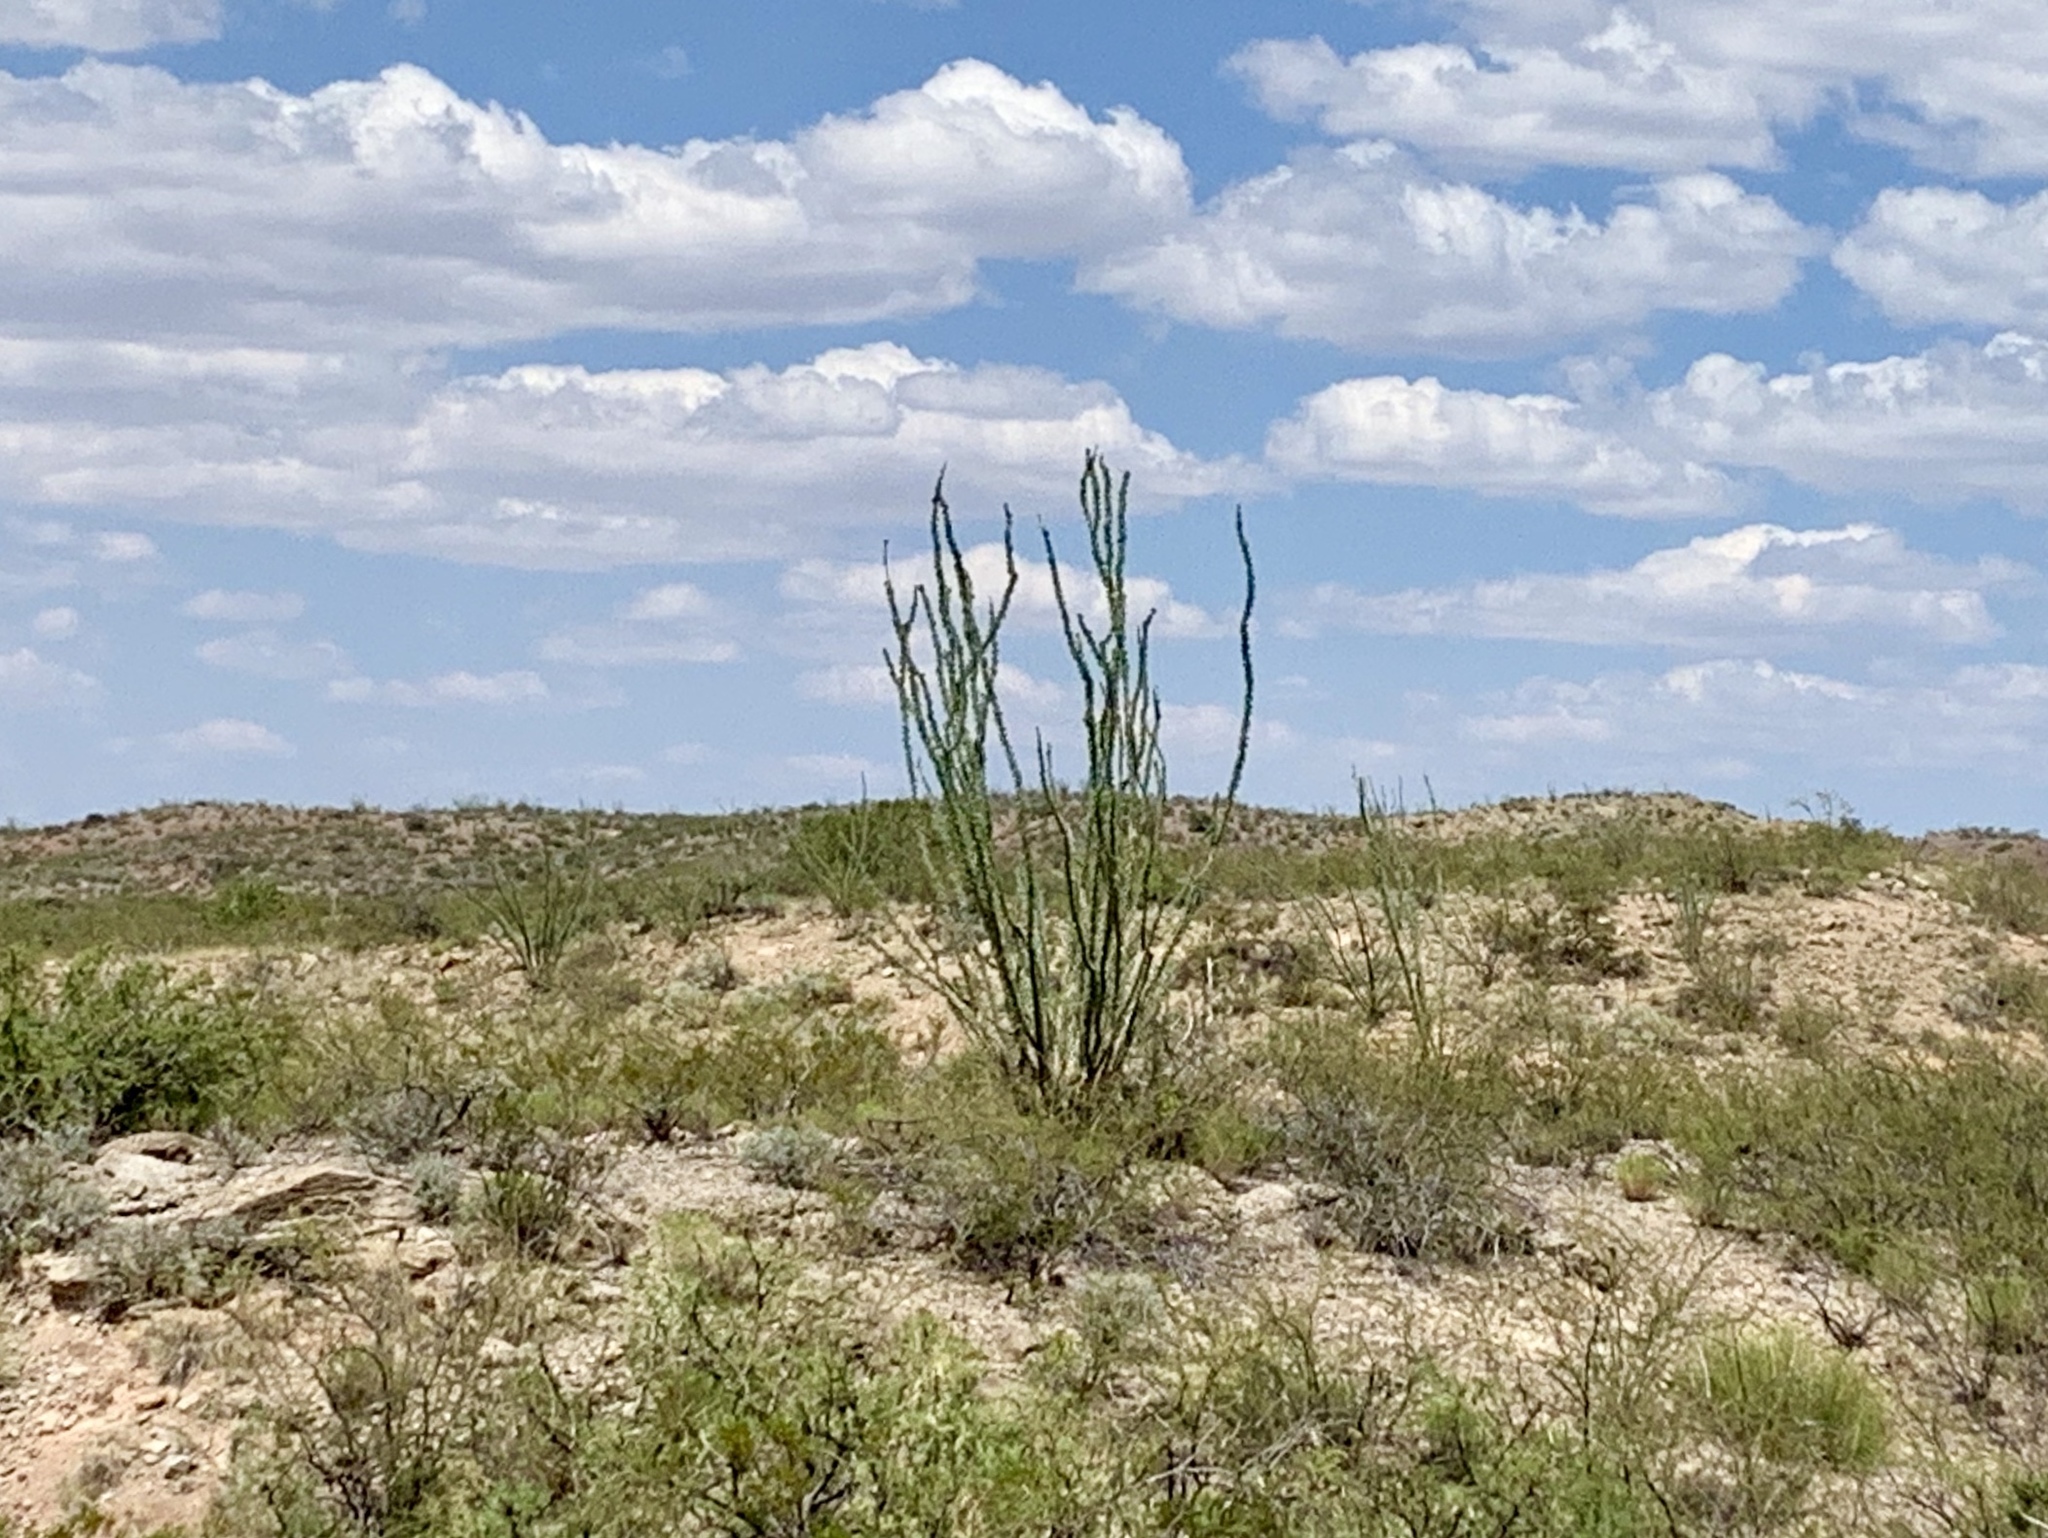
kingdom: Plantae
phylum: Tracheophyta
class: Magnoliopsida
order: Ericales
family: Fouquieriaceae
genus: Fouquieria
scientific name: Fouquieria splendens
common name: Vine-cactus
